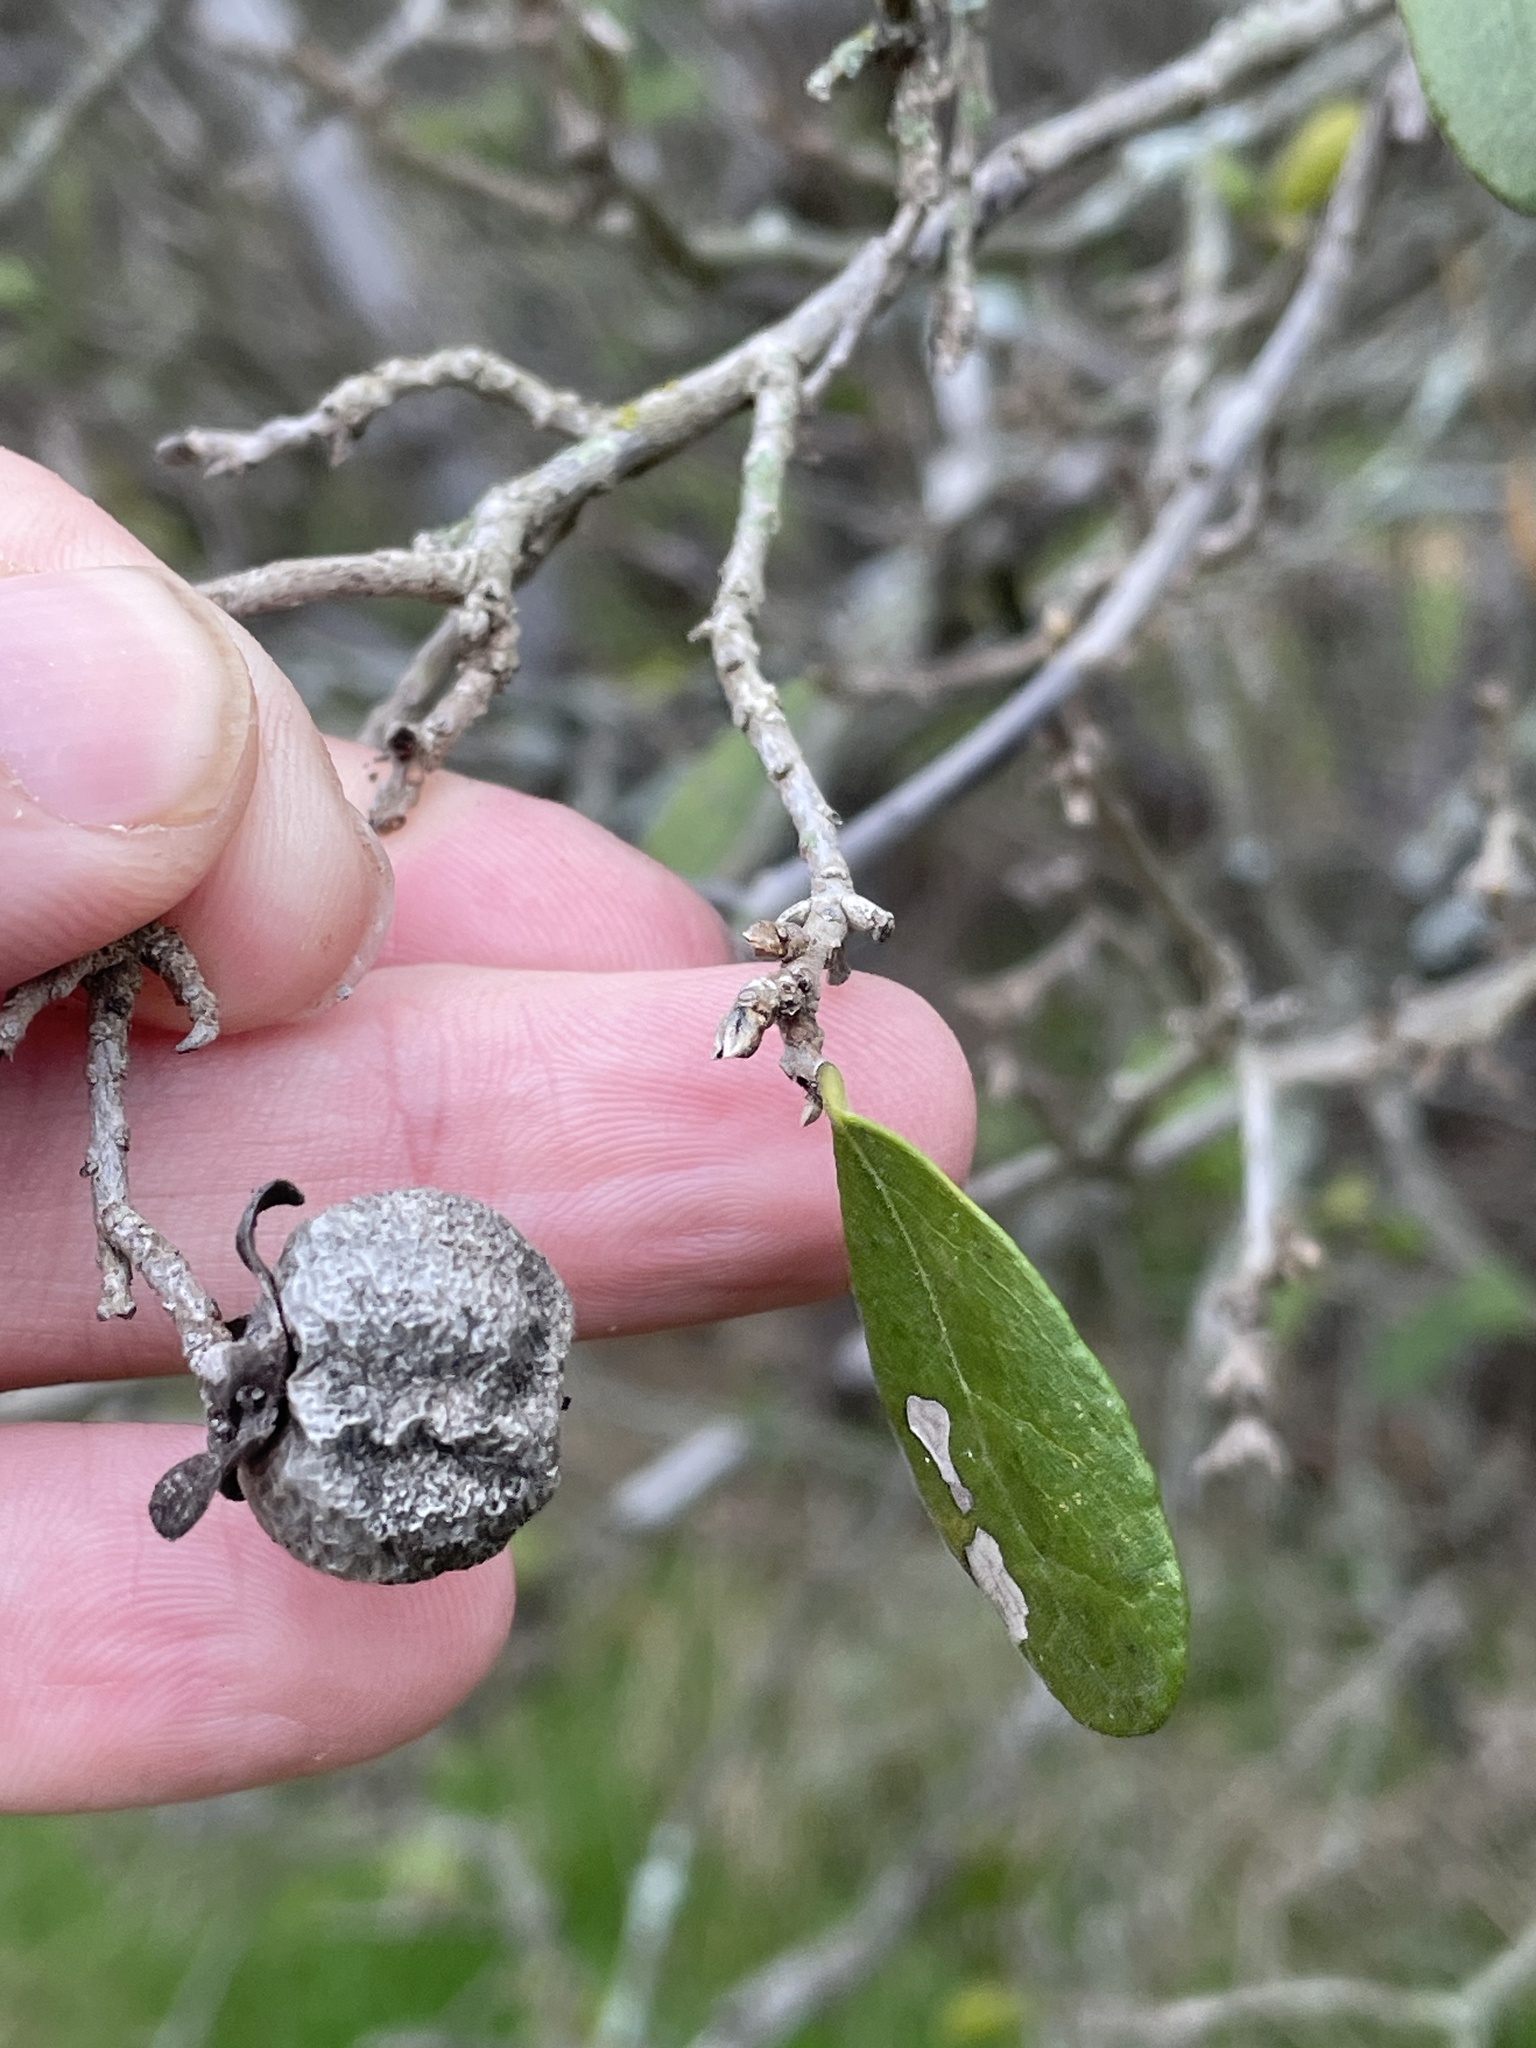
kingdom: Plantae
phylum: Tracheophyta
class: Magnoliopsida
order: Ericales
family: Ebenaceae
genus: Diospyros
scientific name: Diospyros texana
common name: Texas persimmon
